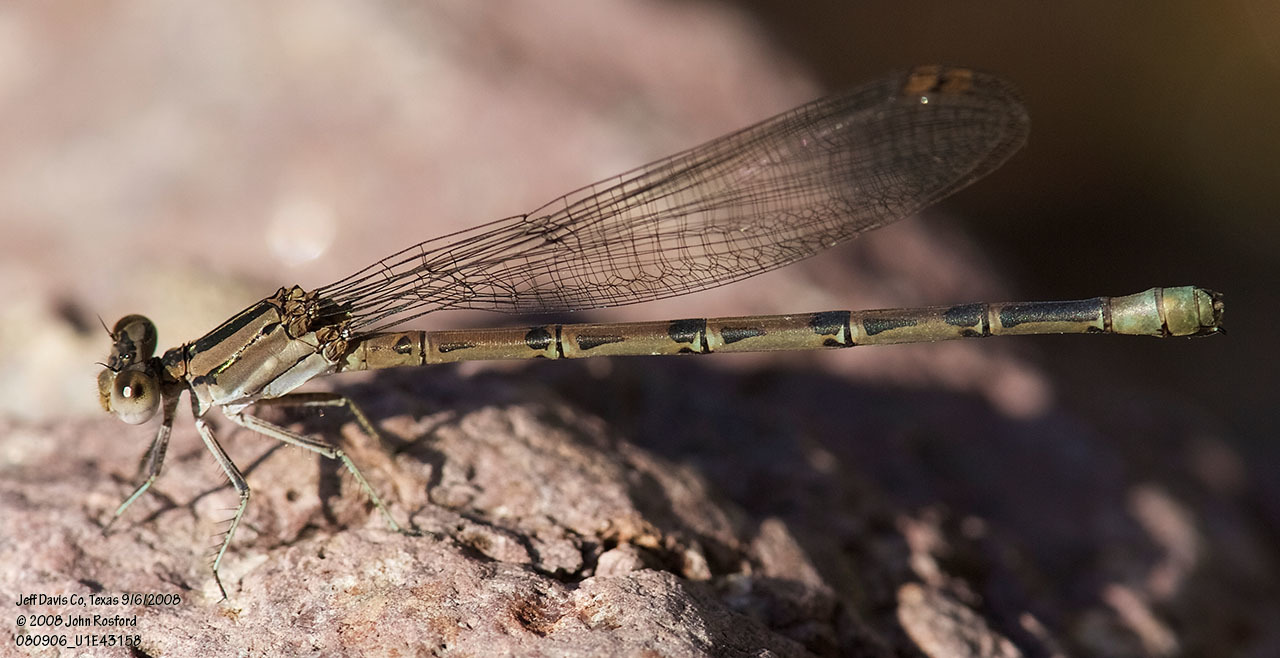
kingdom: Animalia
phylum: Arthropoda
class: Insecta
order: Odonata
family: Coenagrionidae
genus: Argia
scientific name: Argia funebris
